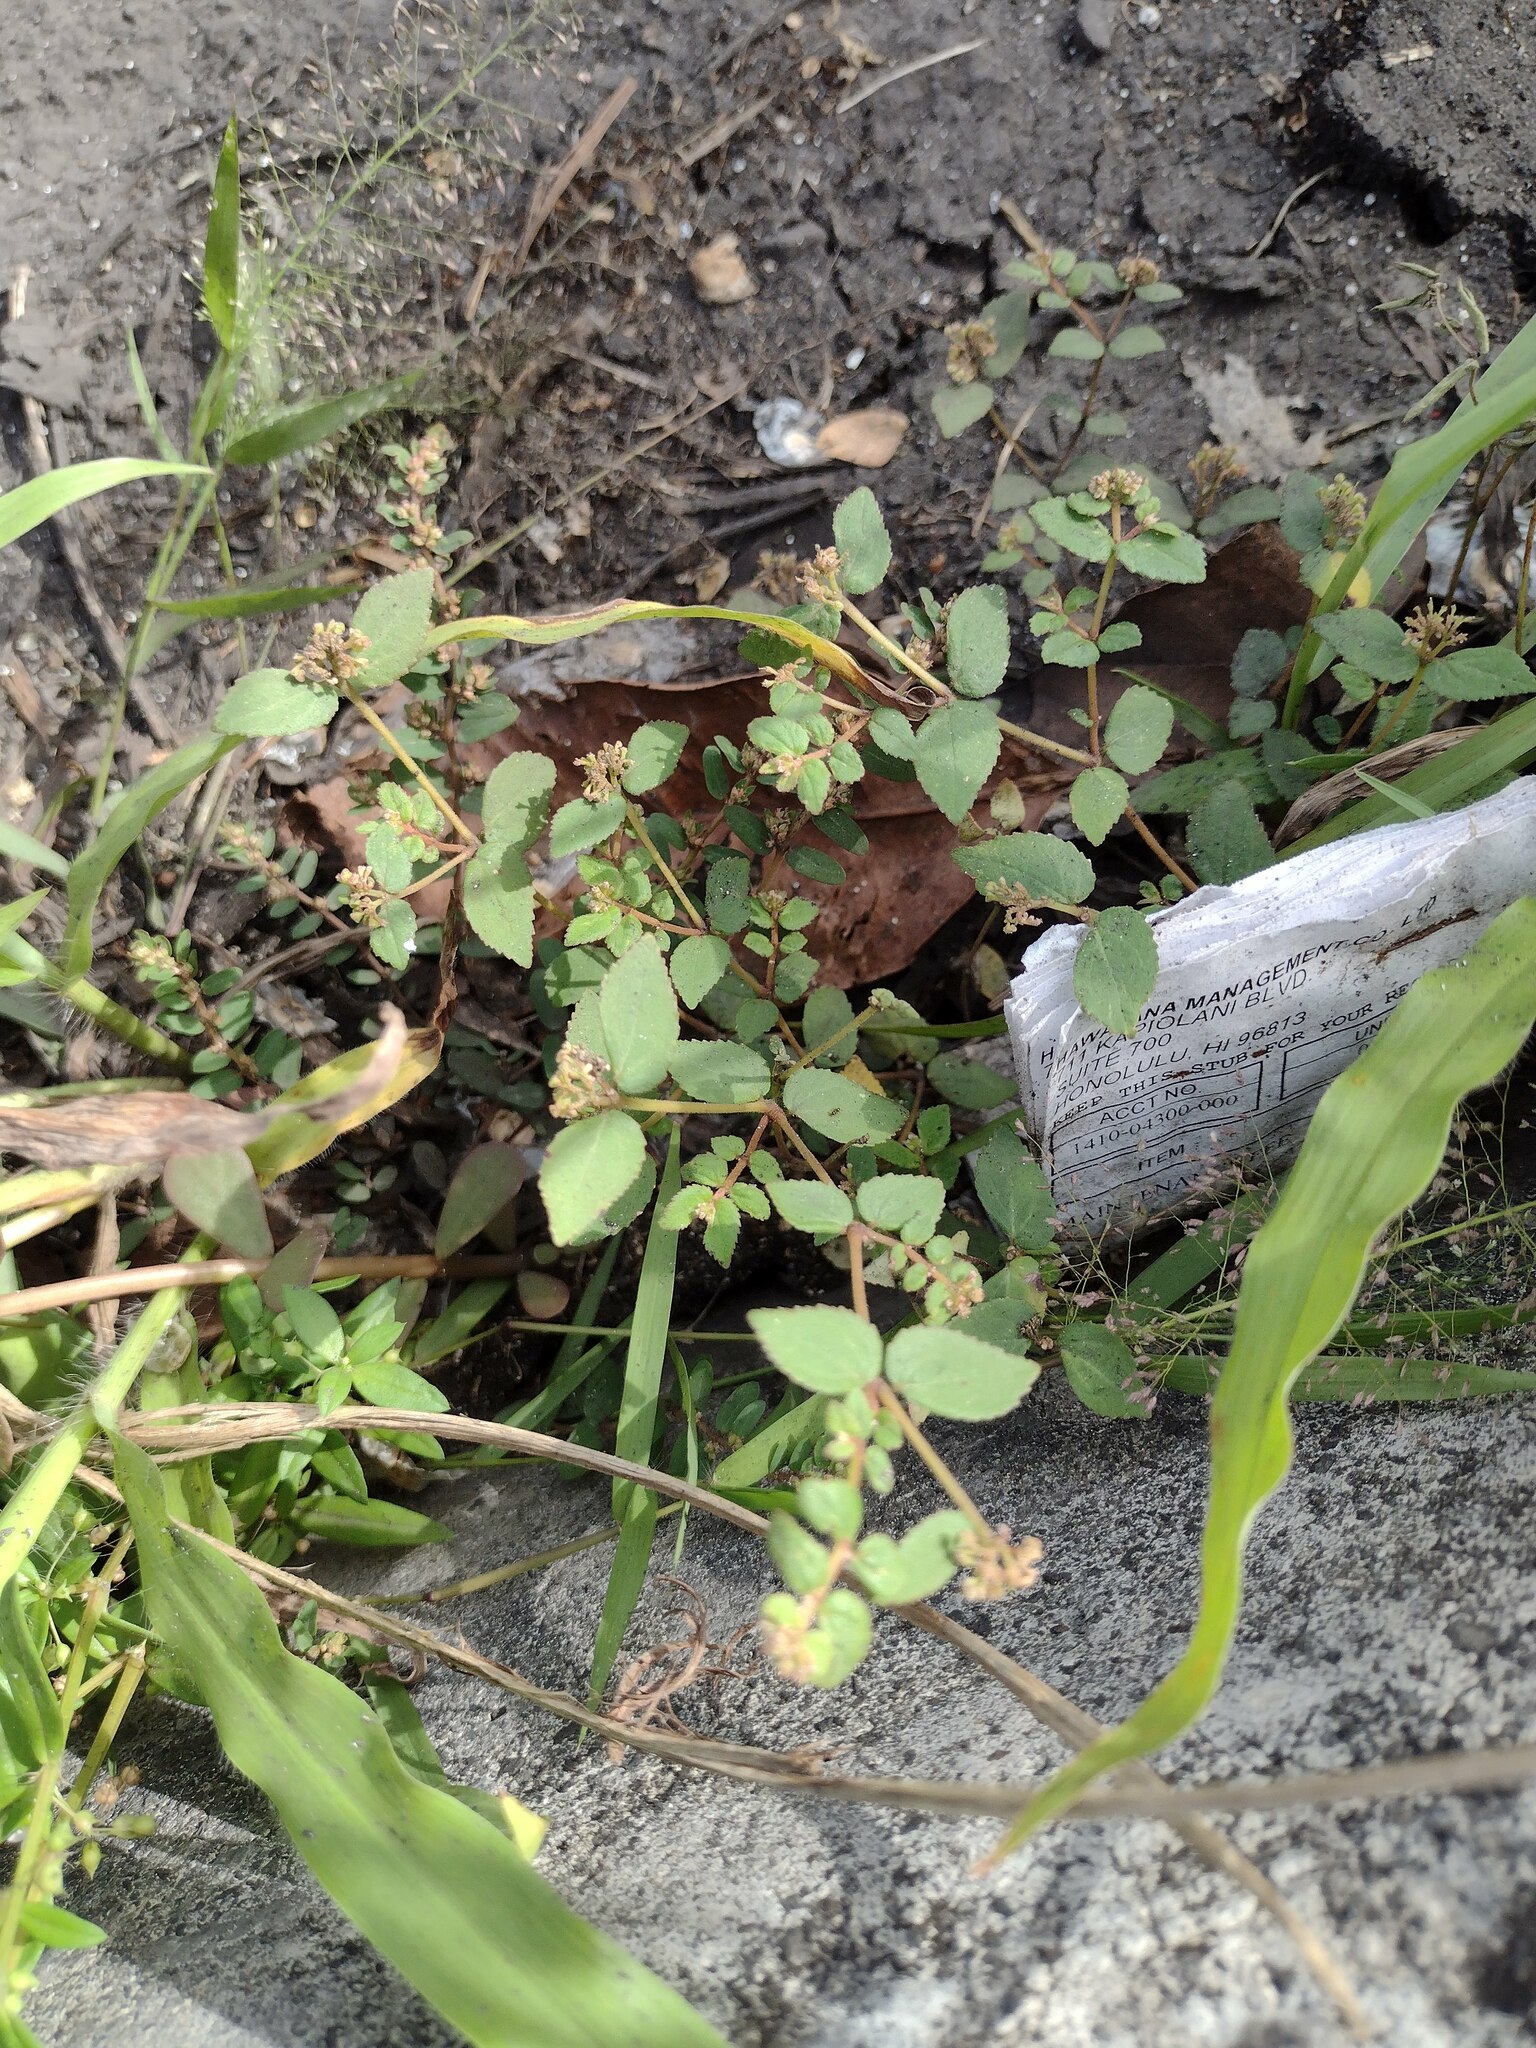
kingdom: Plantae
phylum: Tracheophyta
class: Magnoliopsida
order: Malpighiales
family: Euphorbiaceae
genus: Euphorbia
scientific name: Euphorbia ophthalmica
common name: Florida hammock sandmat
